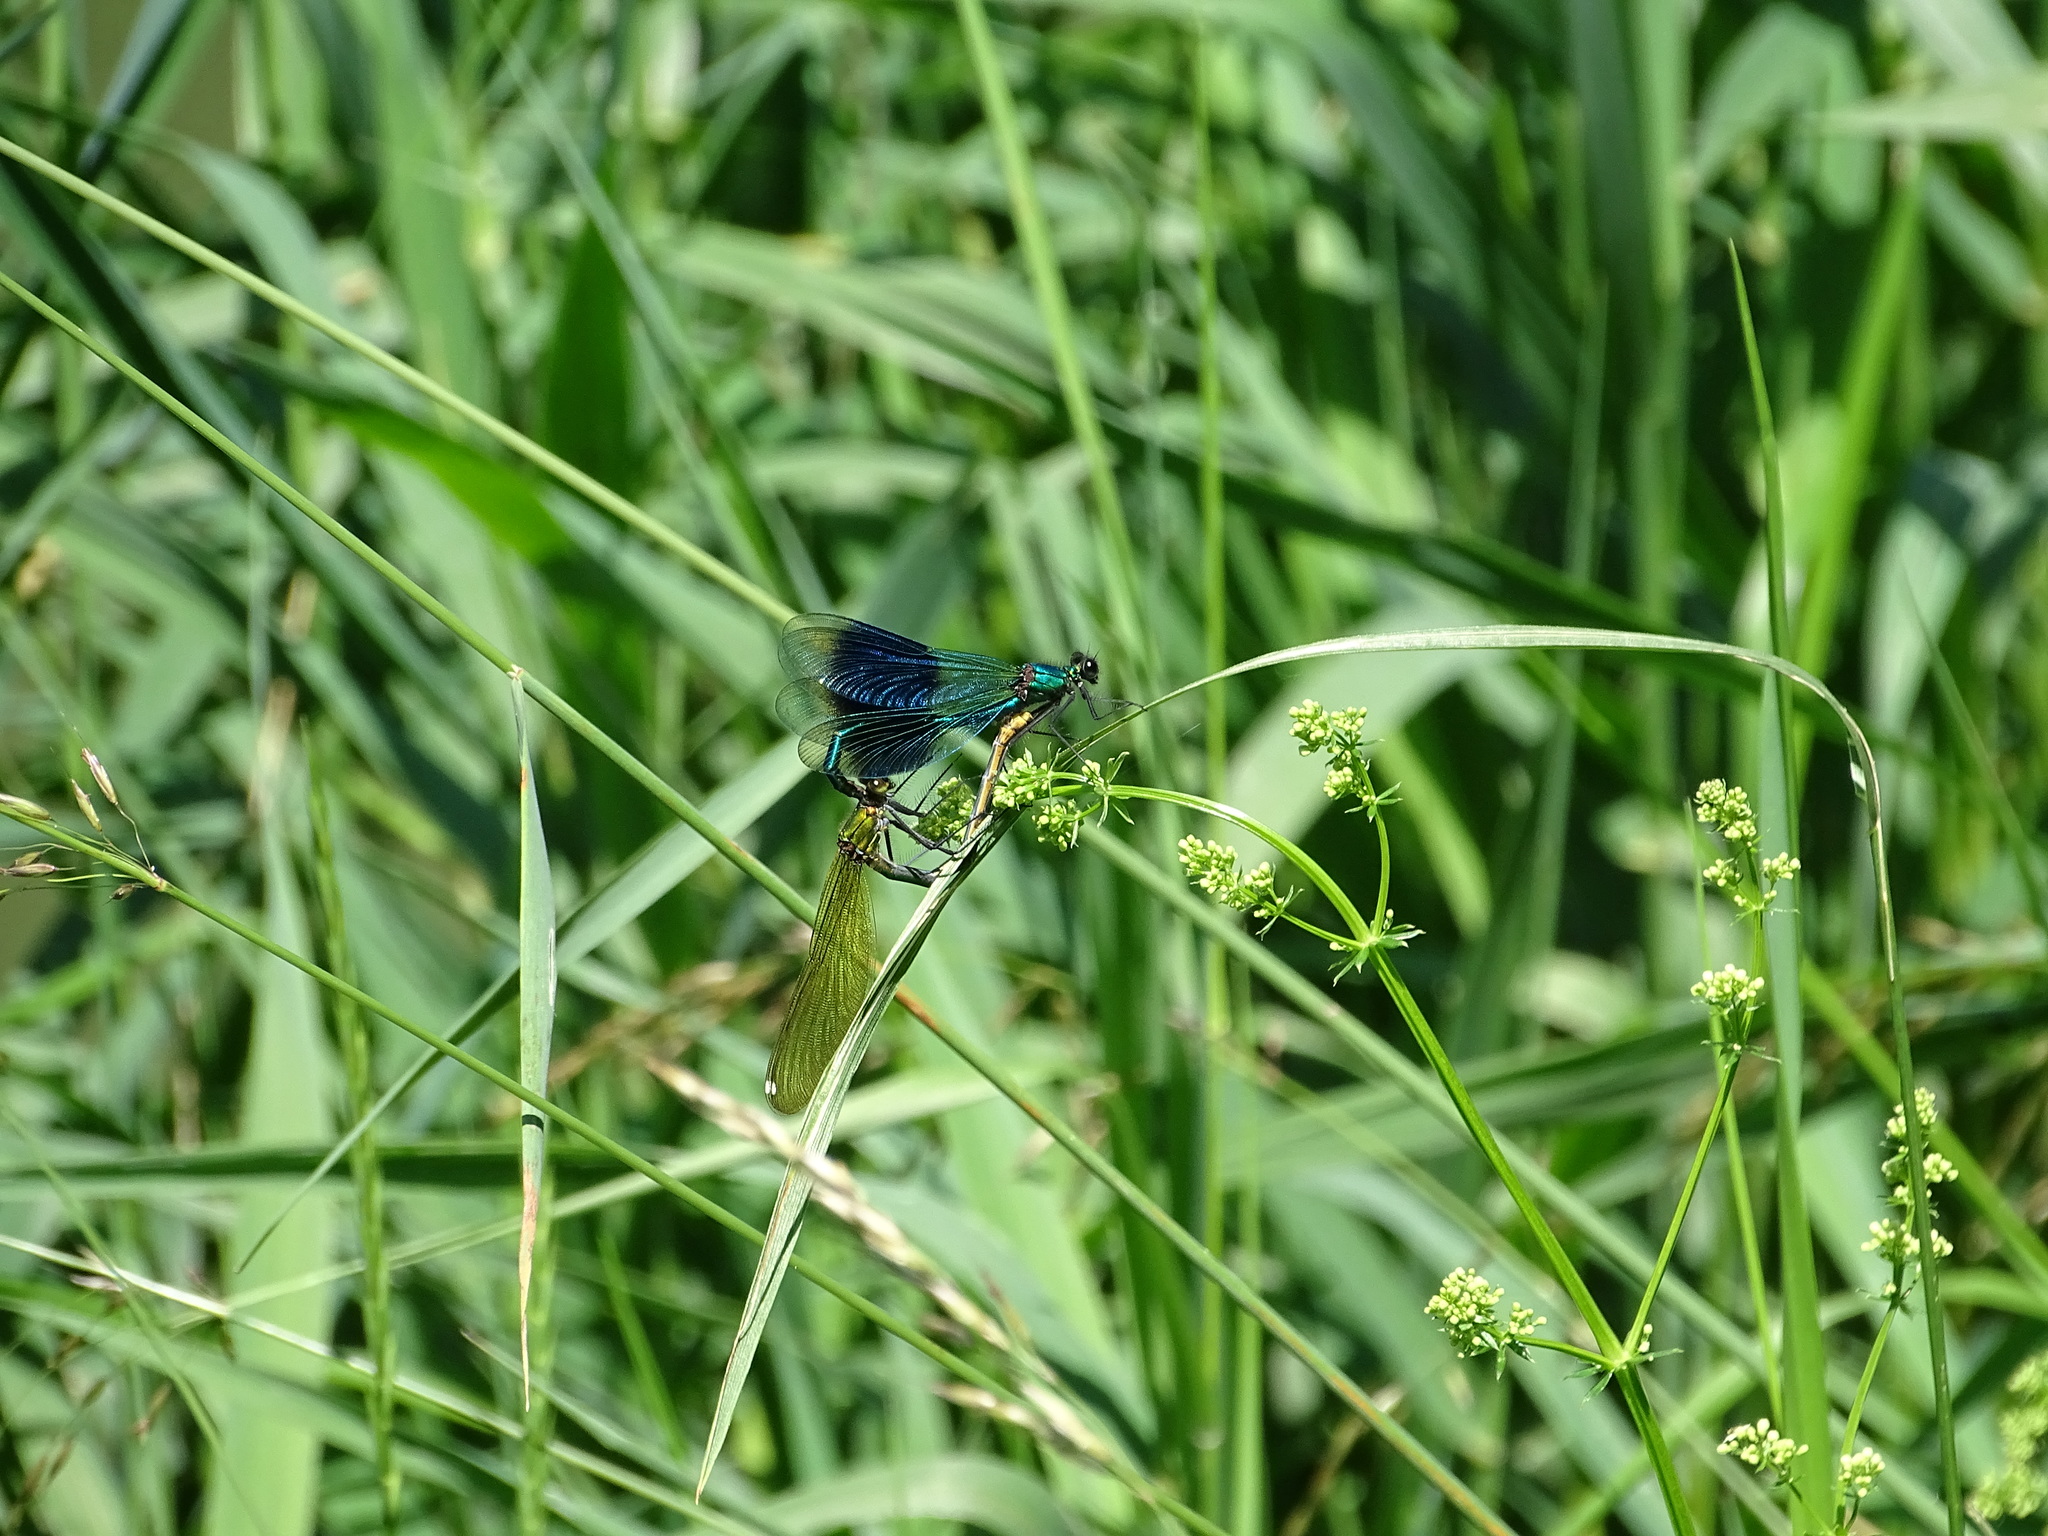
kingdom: Animalia
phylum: Arthropoda
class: Insecta
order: Odonata
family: Calopterygidae
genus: Calopteryx
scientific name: Calopteryx splendens
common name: Banded demoiselle
